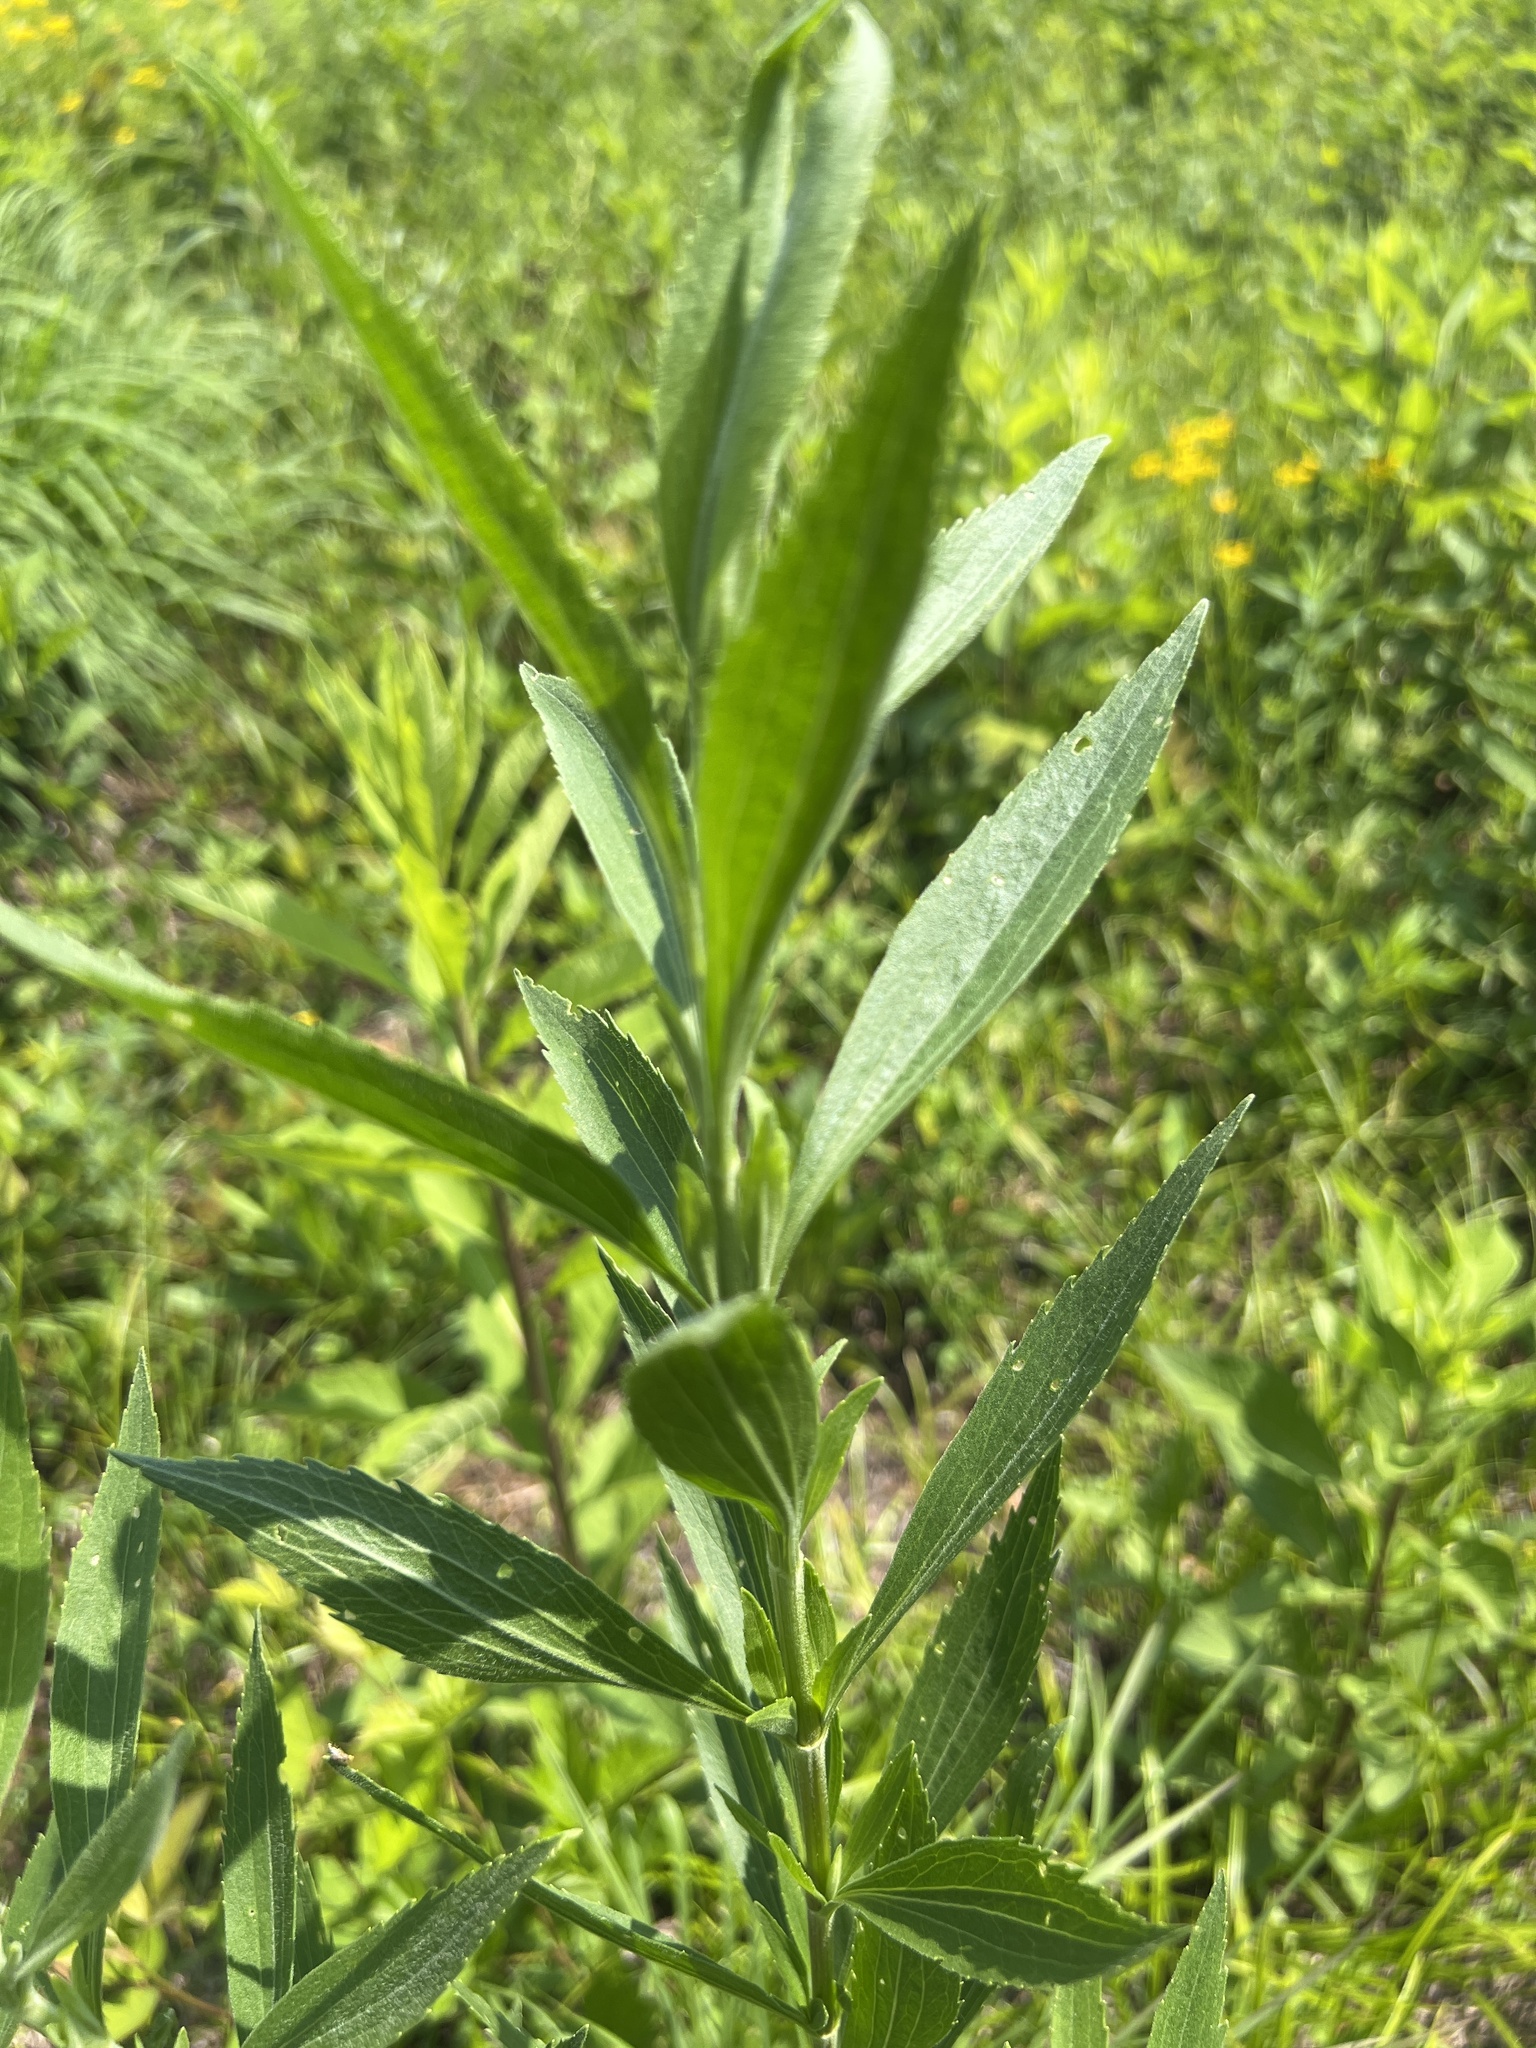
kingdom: Plantae
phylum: Tracheophyta
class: Magnoliopsida
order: Asterales
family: Asteraceae
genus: Eupatorium
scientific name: Eupatorium altissimum
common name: Tall thoroughwort
